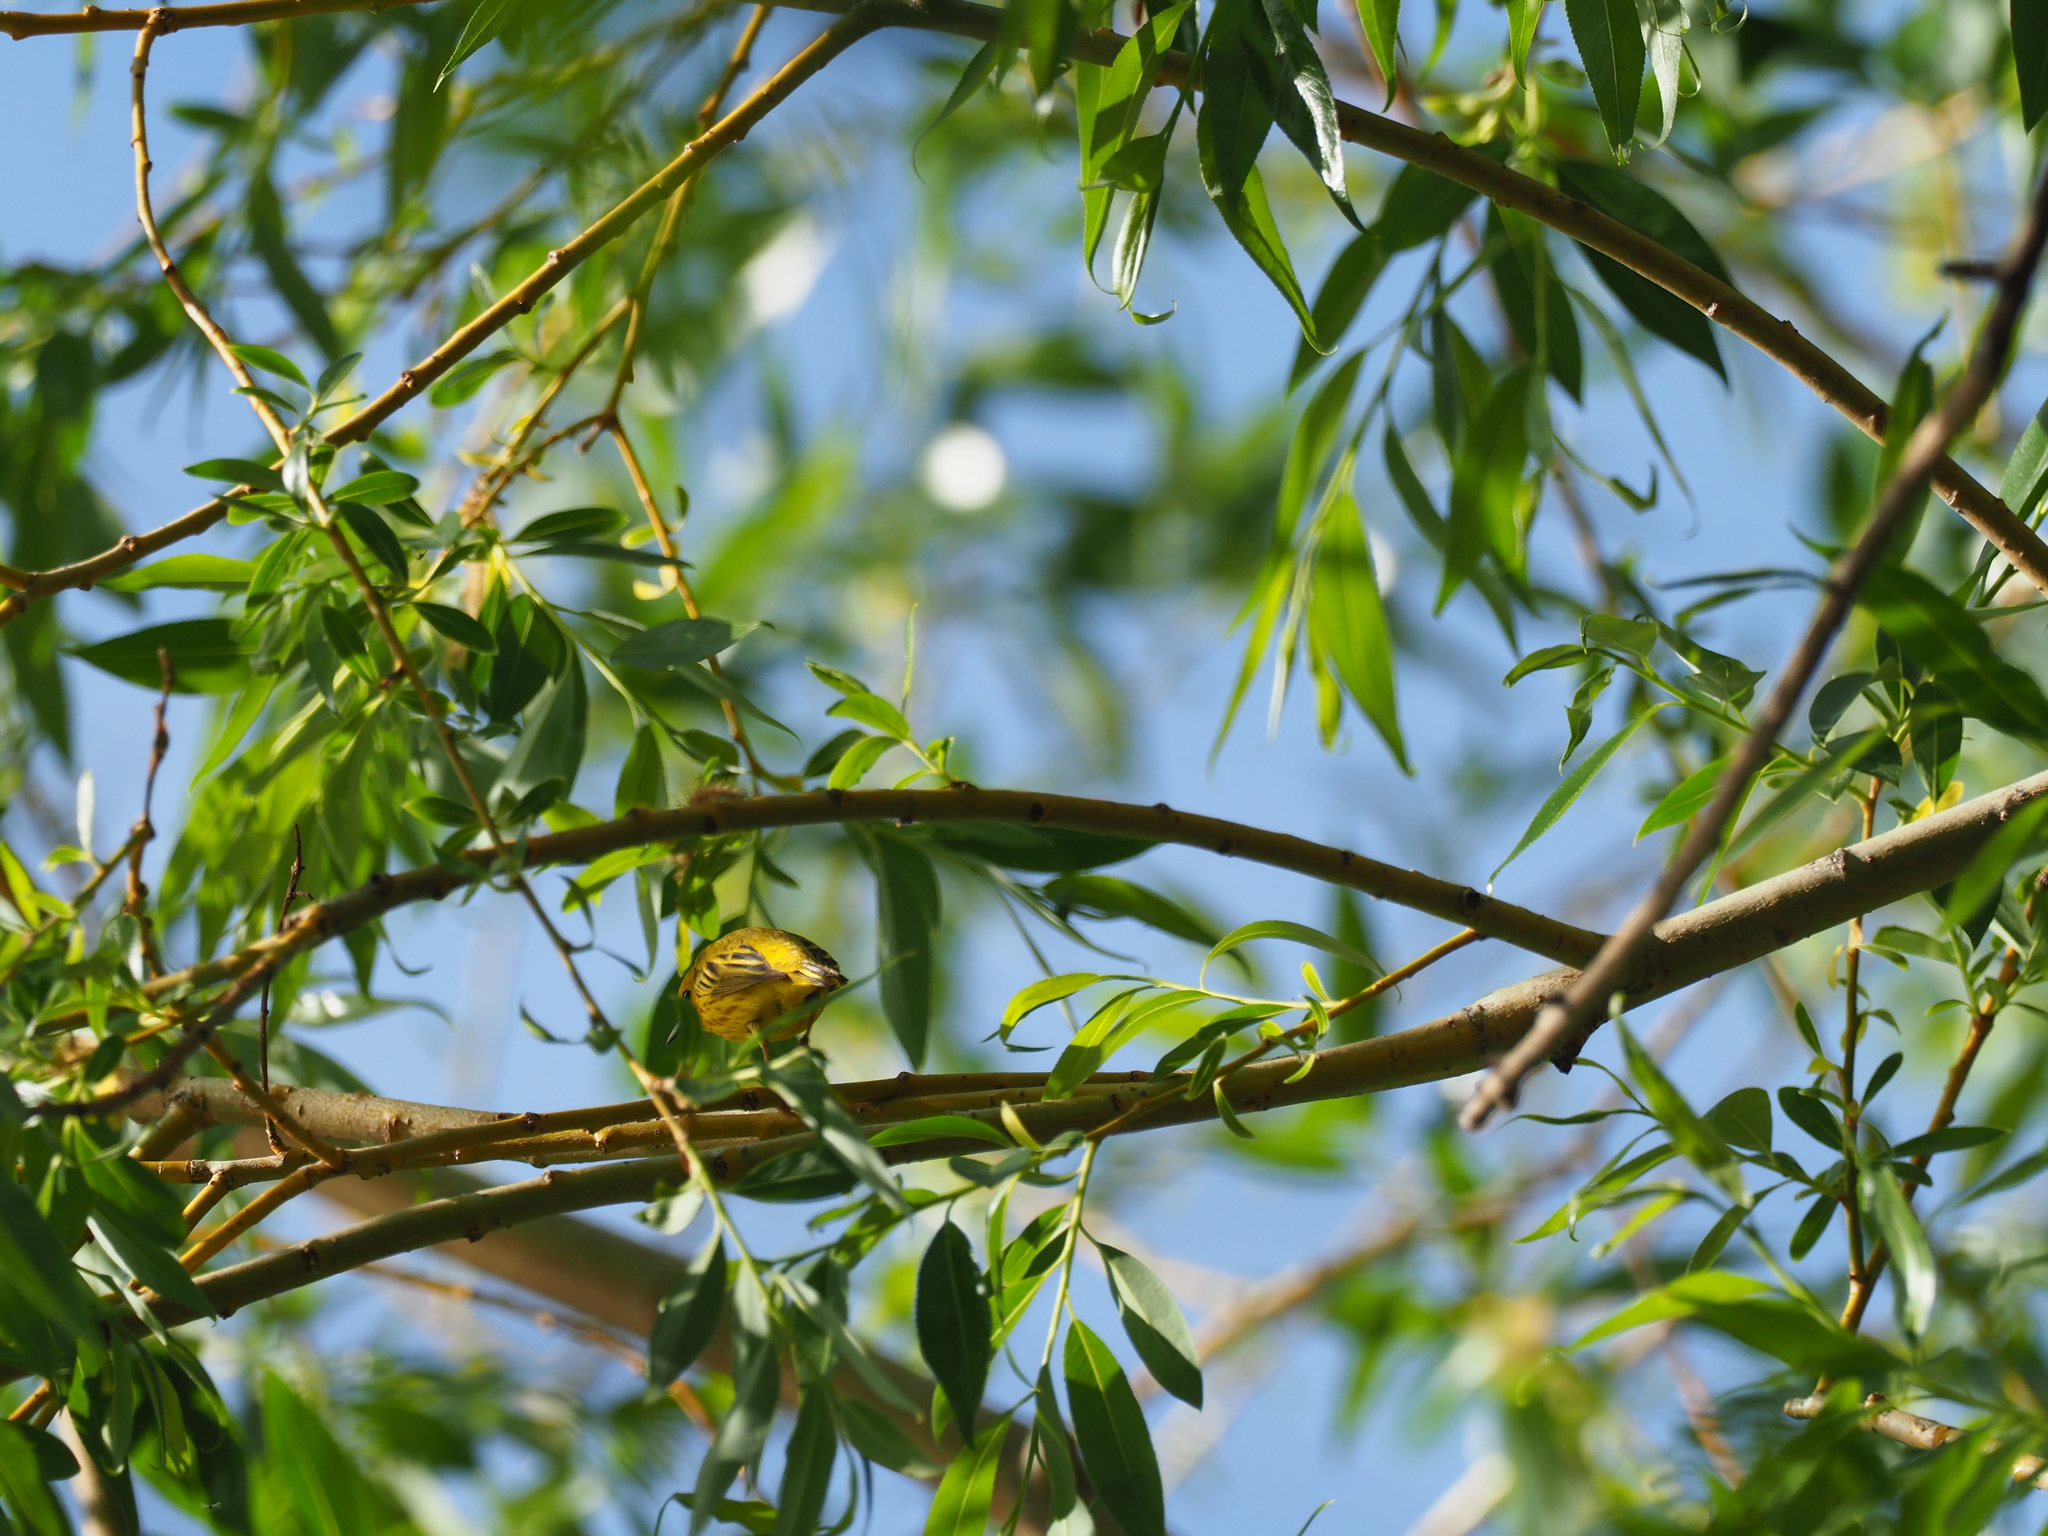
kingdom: Animalia
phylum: Chordata
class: Aves
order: Passeriformes
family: Parulidae
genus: Setophaga
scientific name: Setophaga petechia
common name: Yellow warbler
